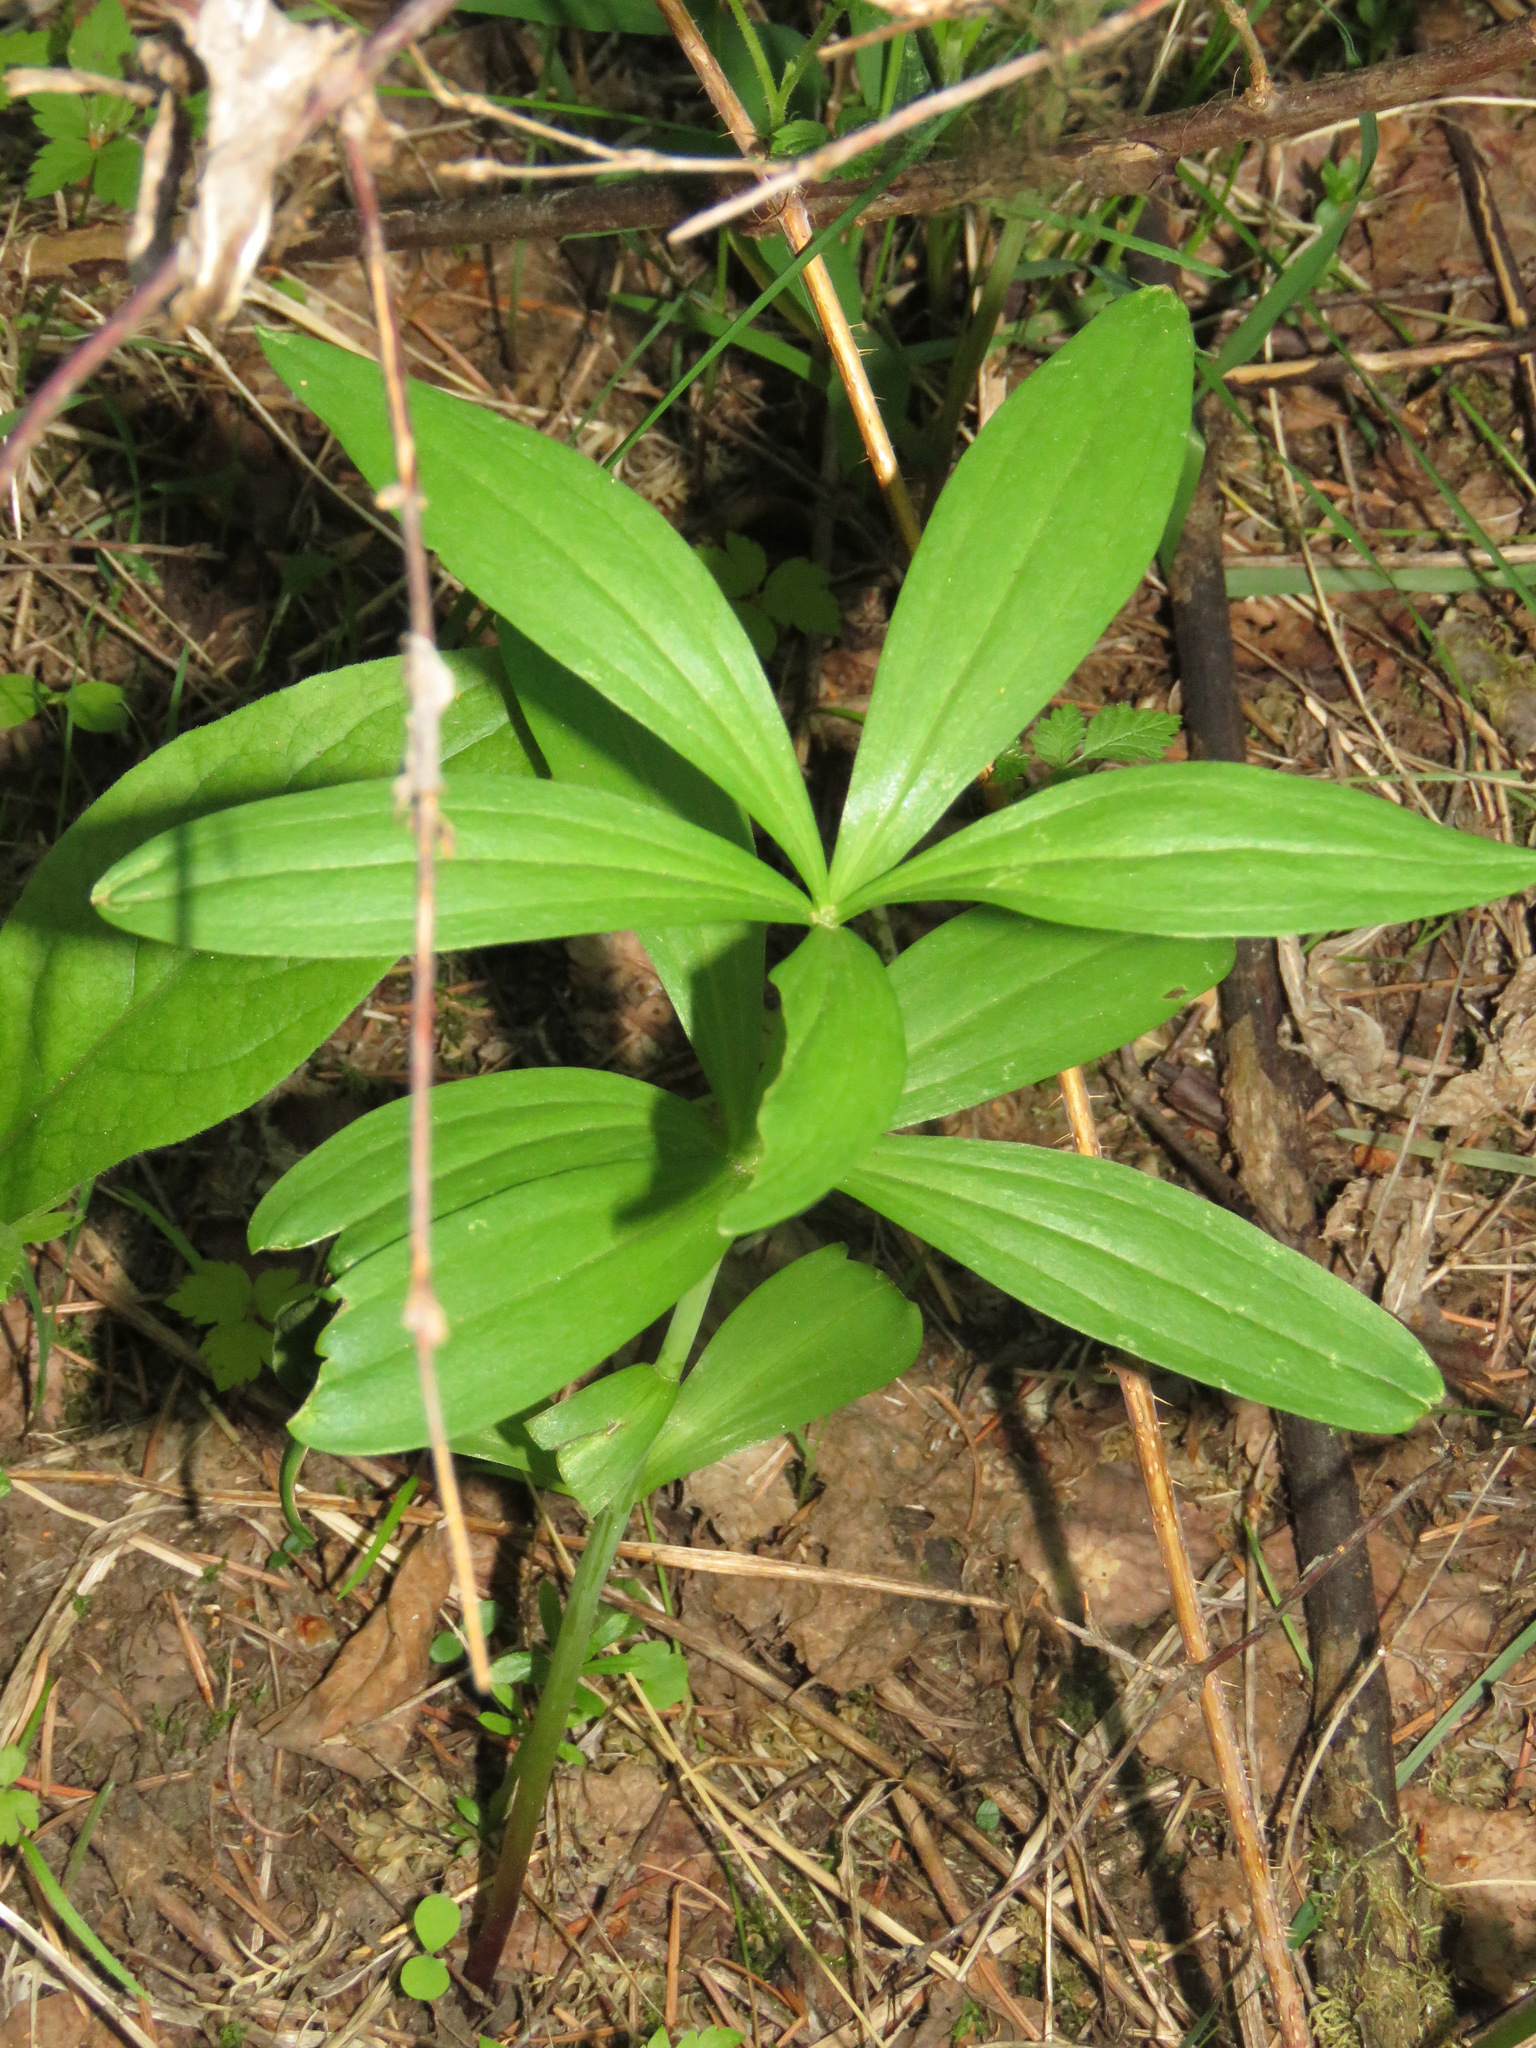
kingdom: Plantae
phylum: Tracheophyta
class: Liliopsida
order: Liliales
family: Liliaceae
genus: Lilium
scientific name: Lilium columbianum
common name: Columbia lily
